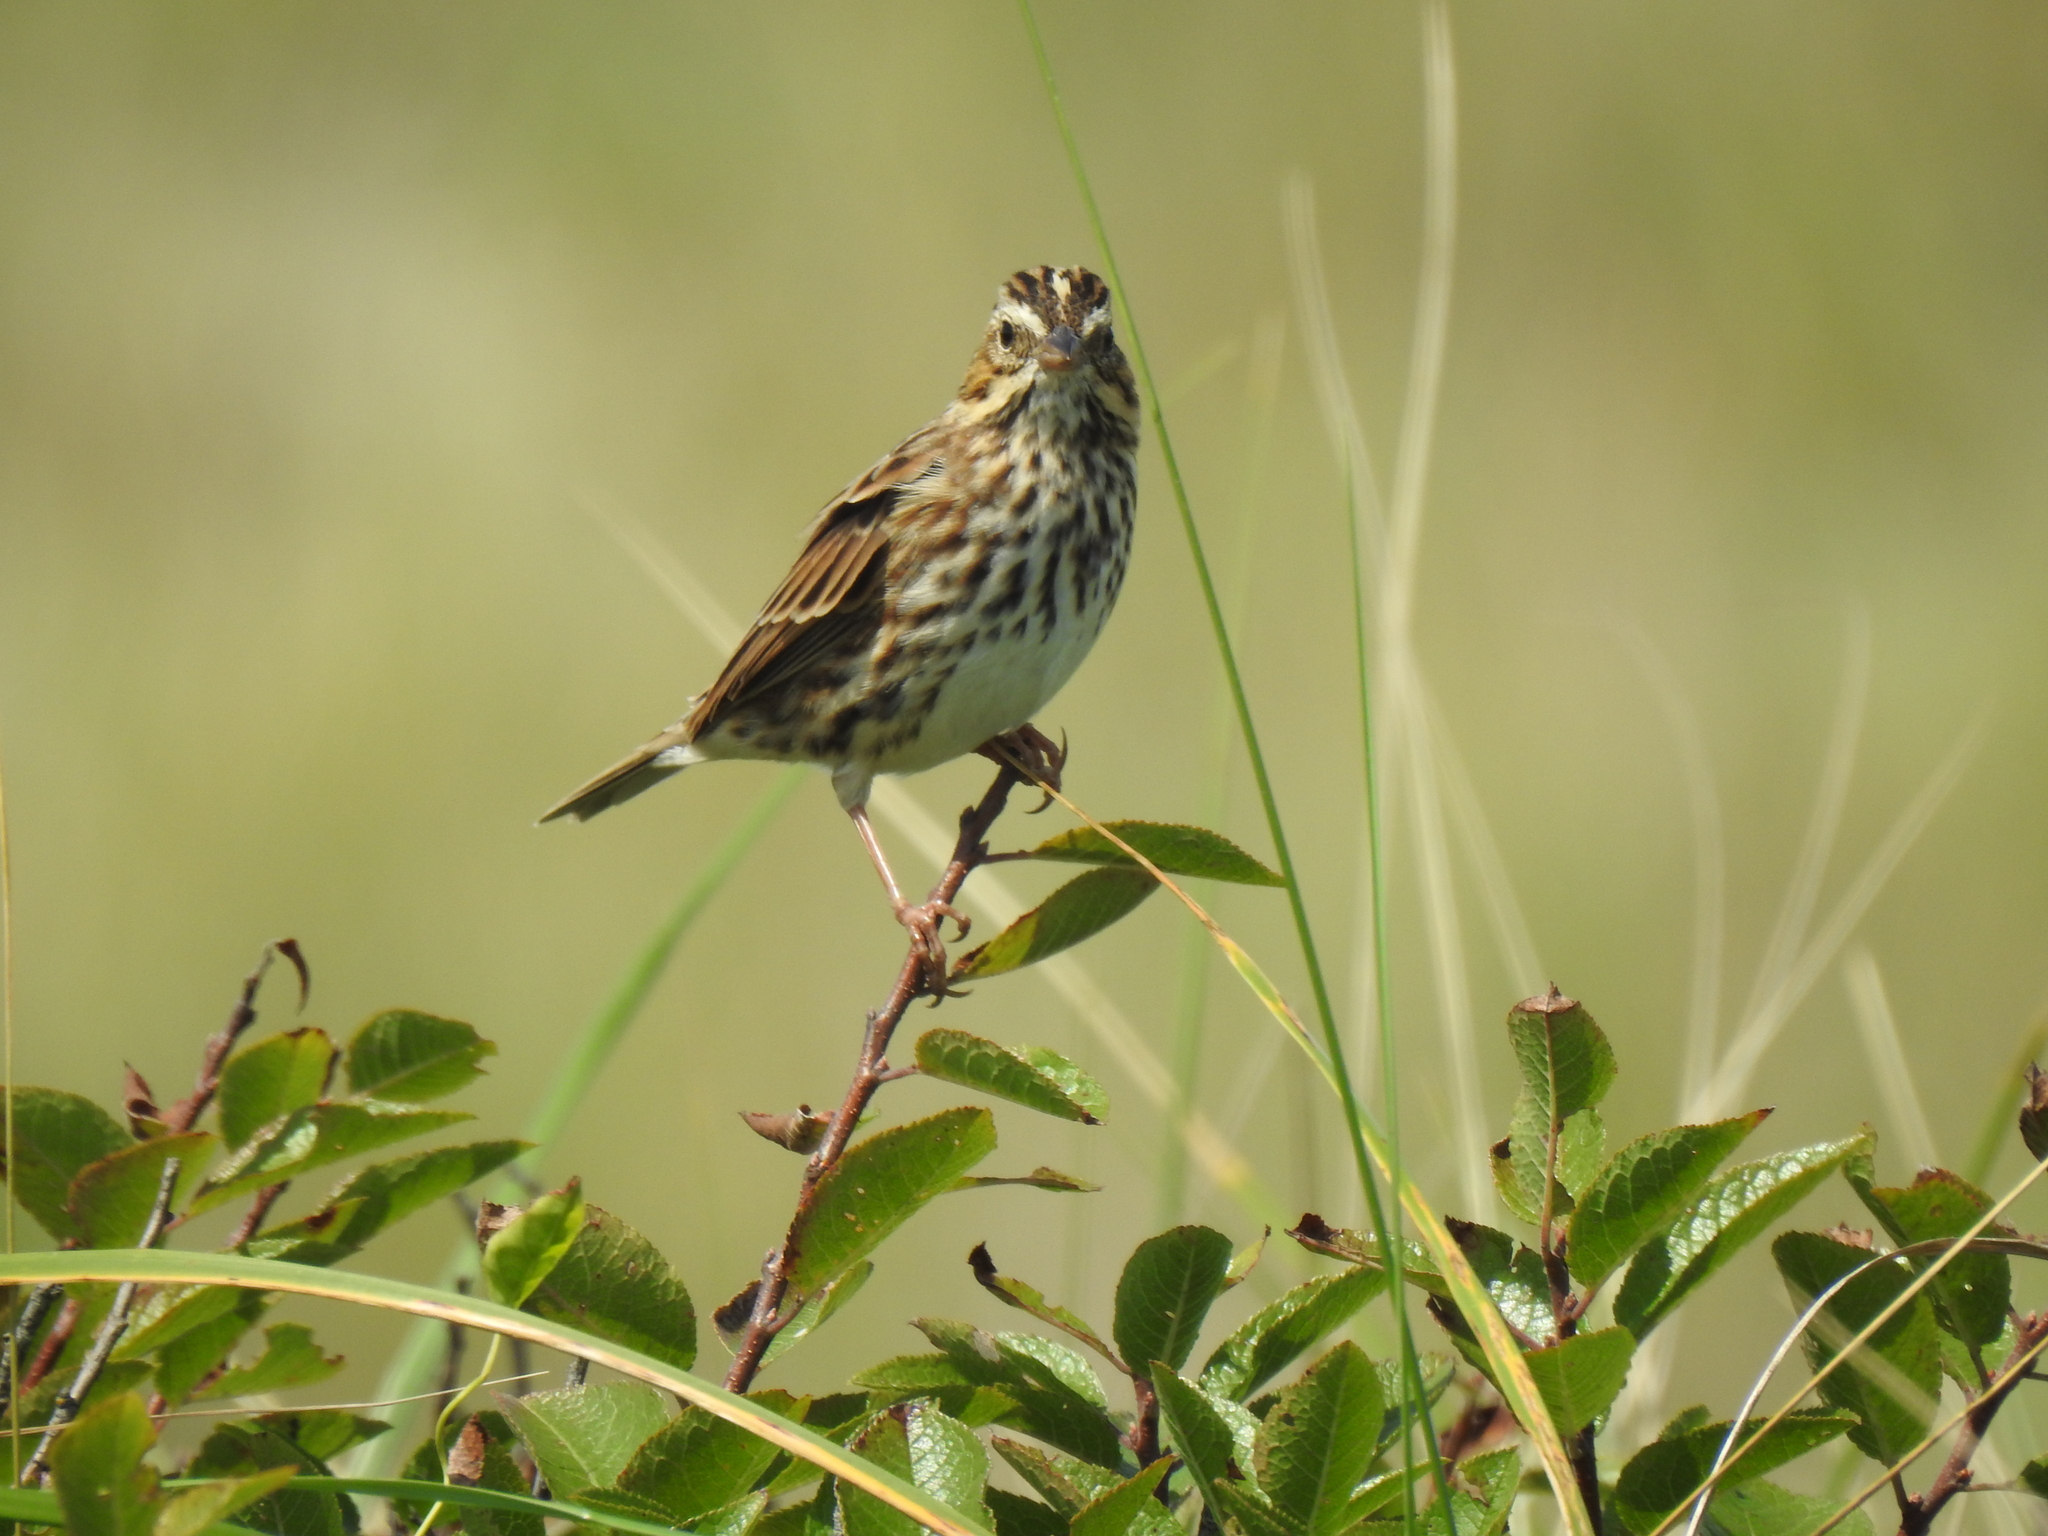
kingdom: Animalia
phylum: Chordata
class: Aves
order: Passeriformes
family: Passerellidae
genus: Passerculus
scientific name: Passerculus sandwichensis
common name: Savannah sparrow
